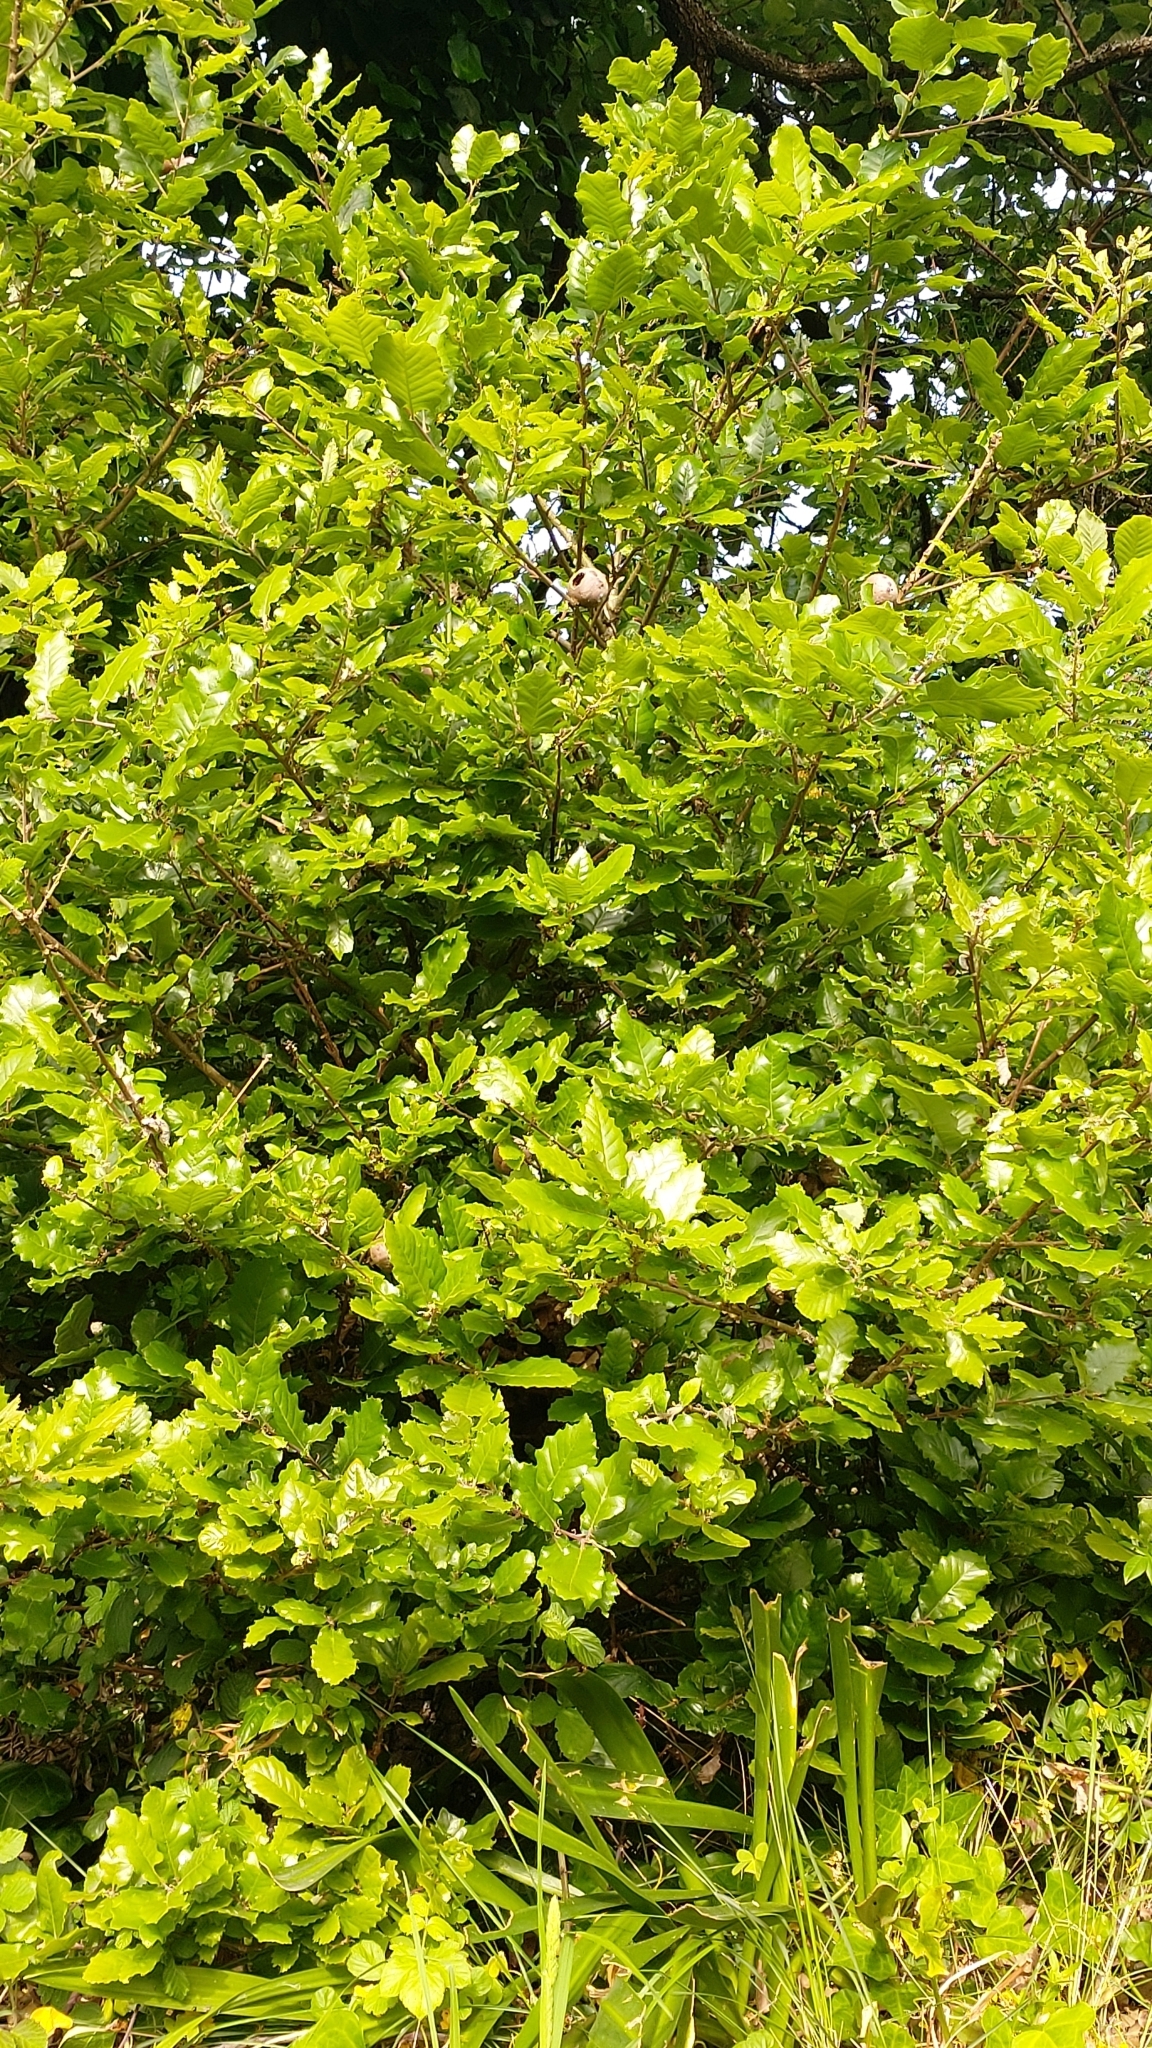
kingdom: Plantae
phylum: Tracheophyta
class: Magnoliopsida
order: Fagales
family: Fagaceae
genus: Quercus
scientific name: Quercus faginea
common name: Gall oak tree
